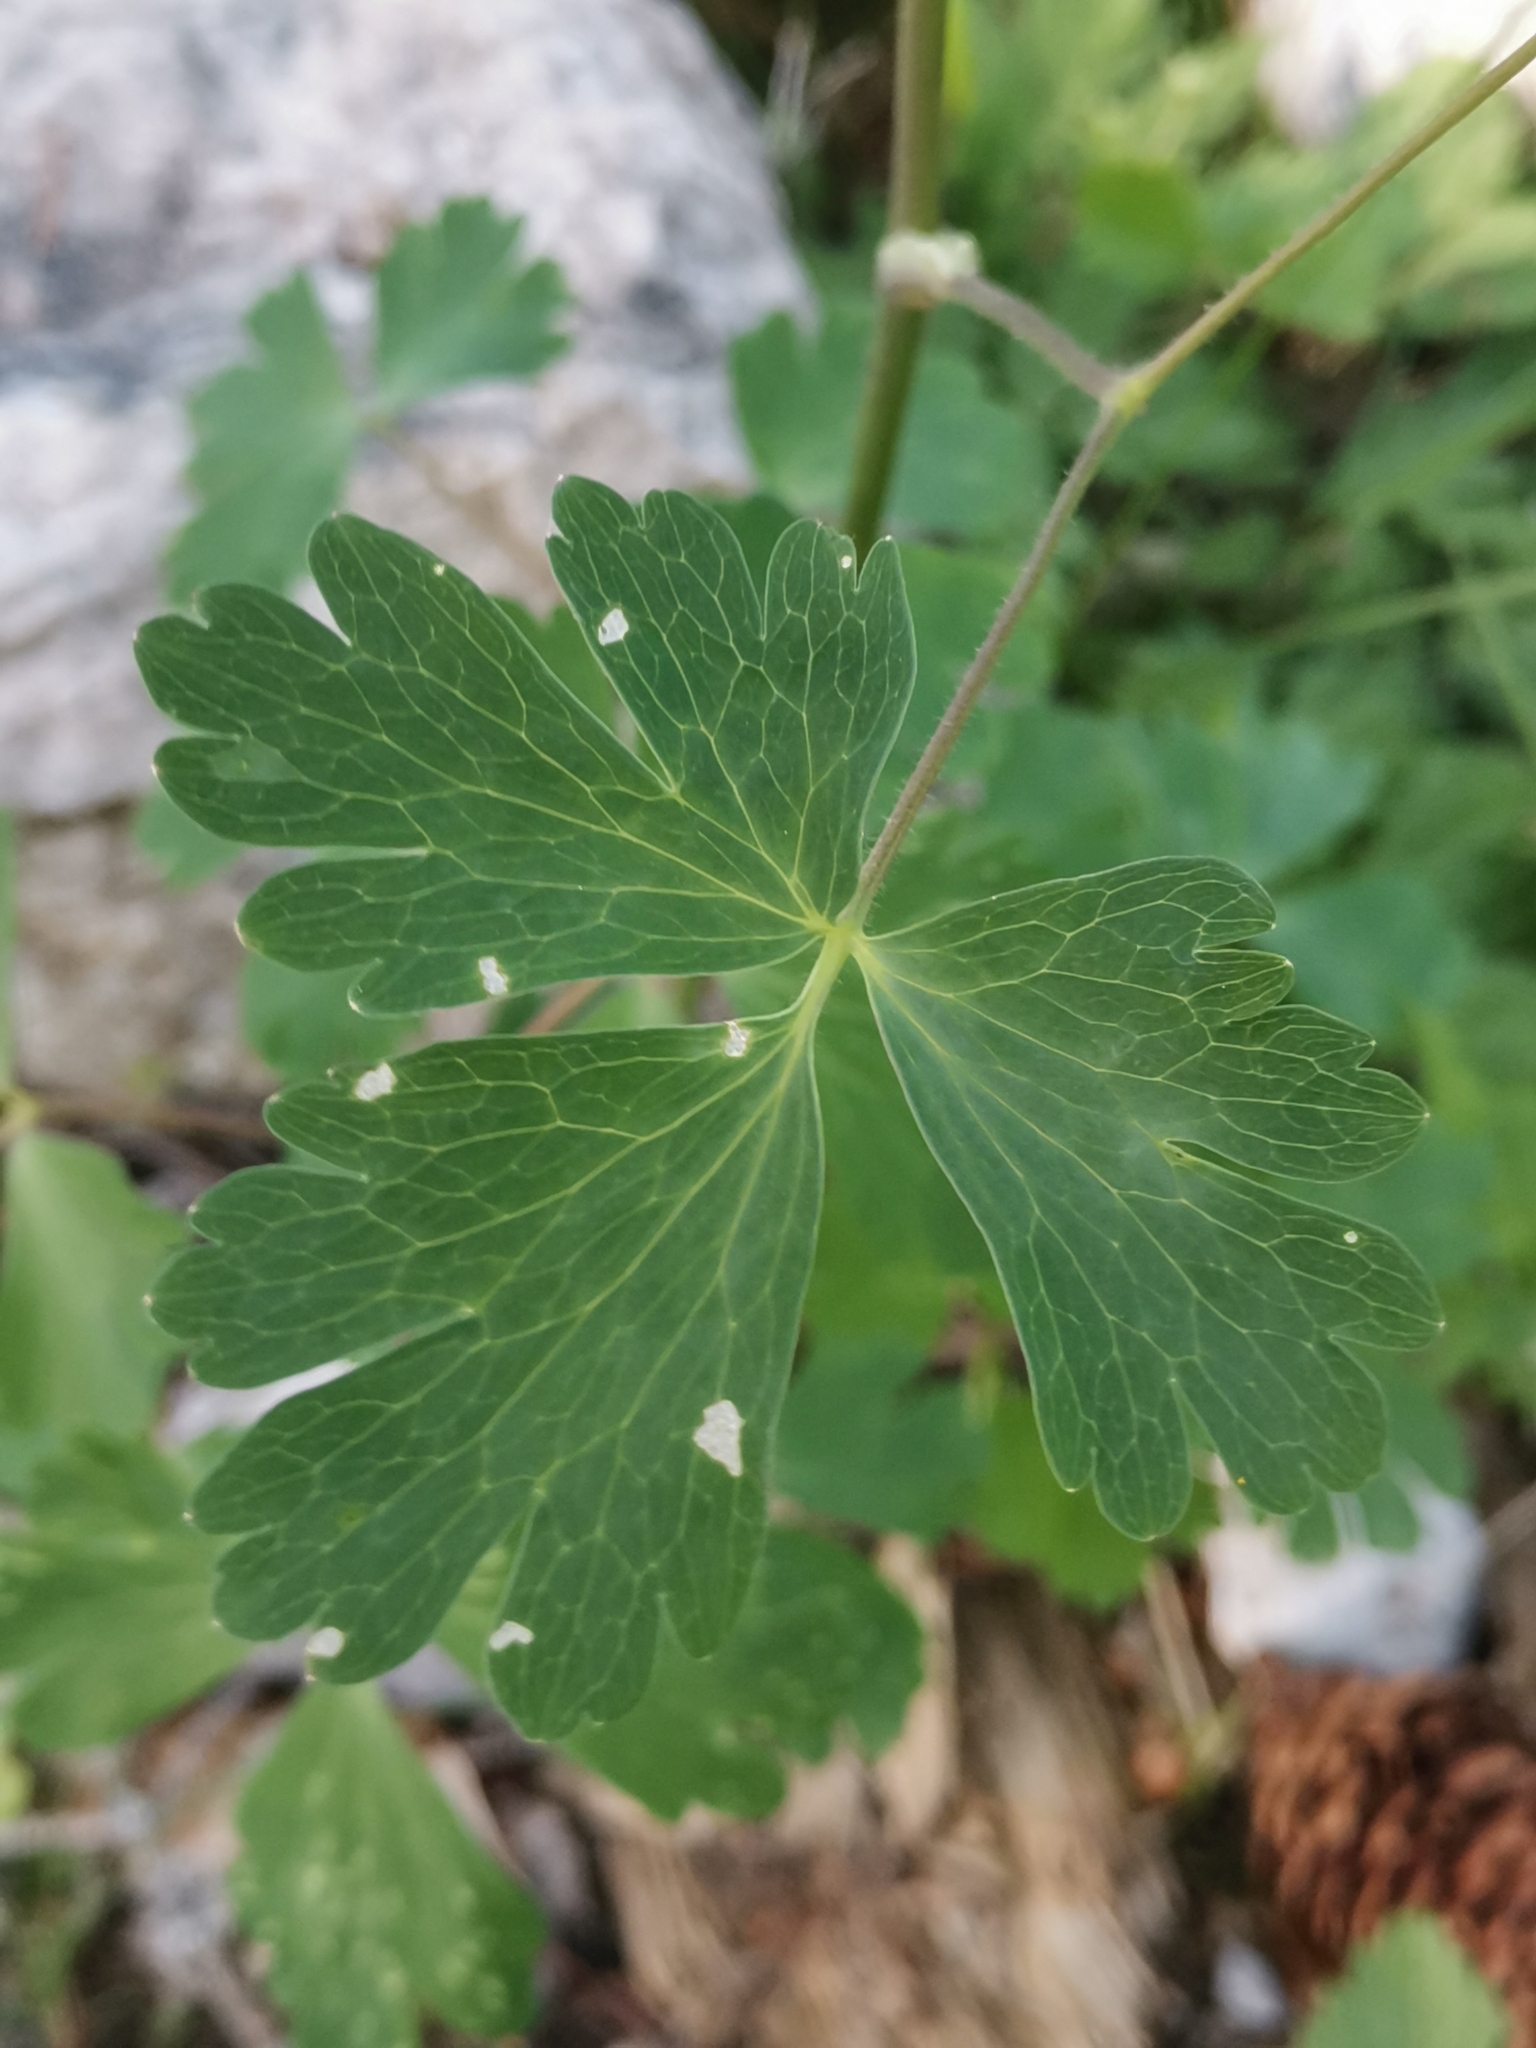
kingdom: Plantae
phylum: Tracheophyta
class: Magnoliopsida
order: Ranunculales
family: Ranunculaceae
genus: Aquilegia
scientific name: Aquilegia nigricans
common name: Bulgarian columbine
